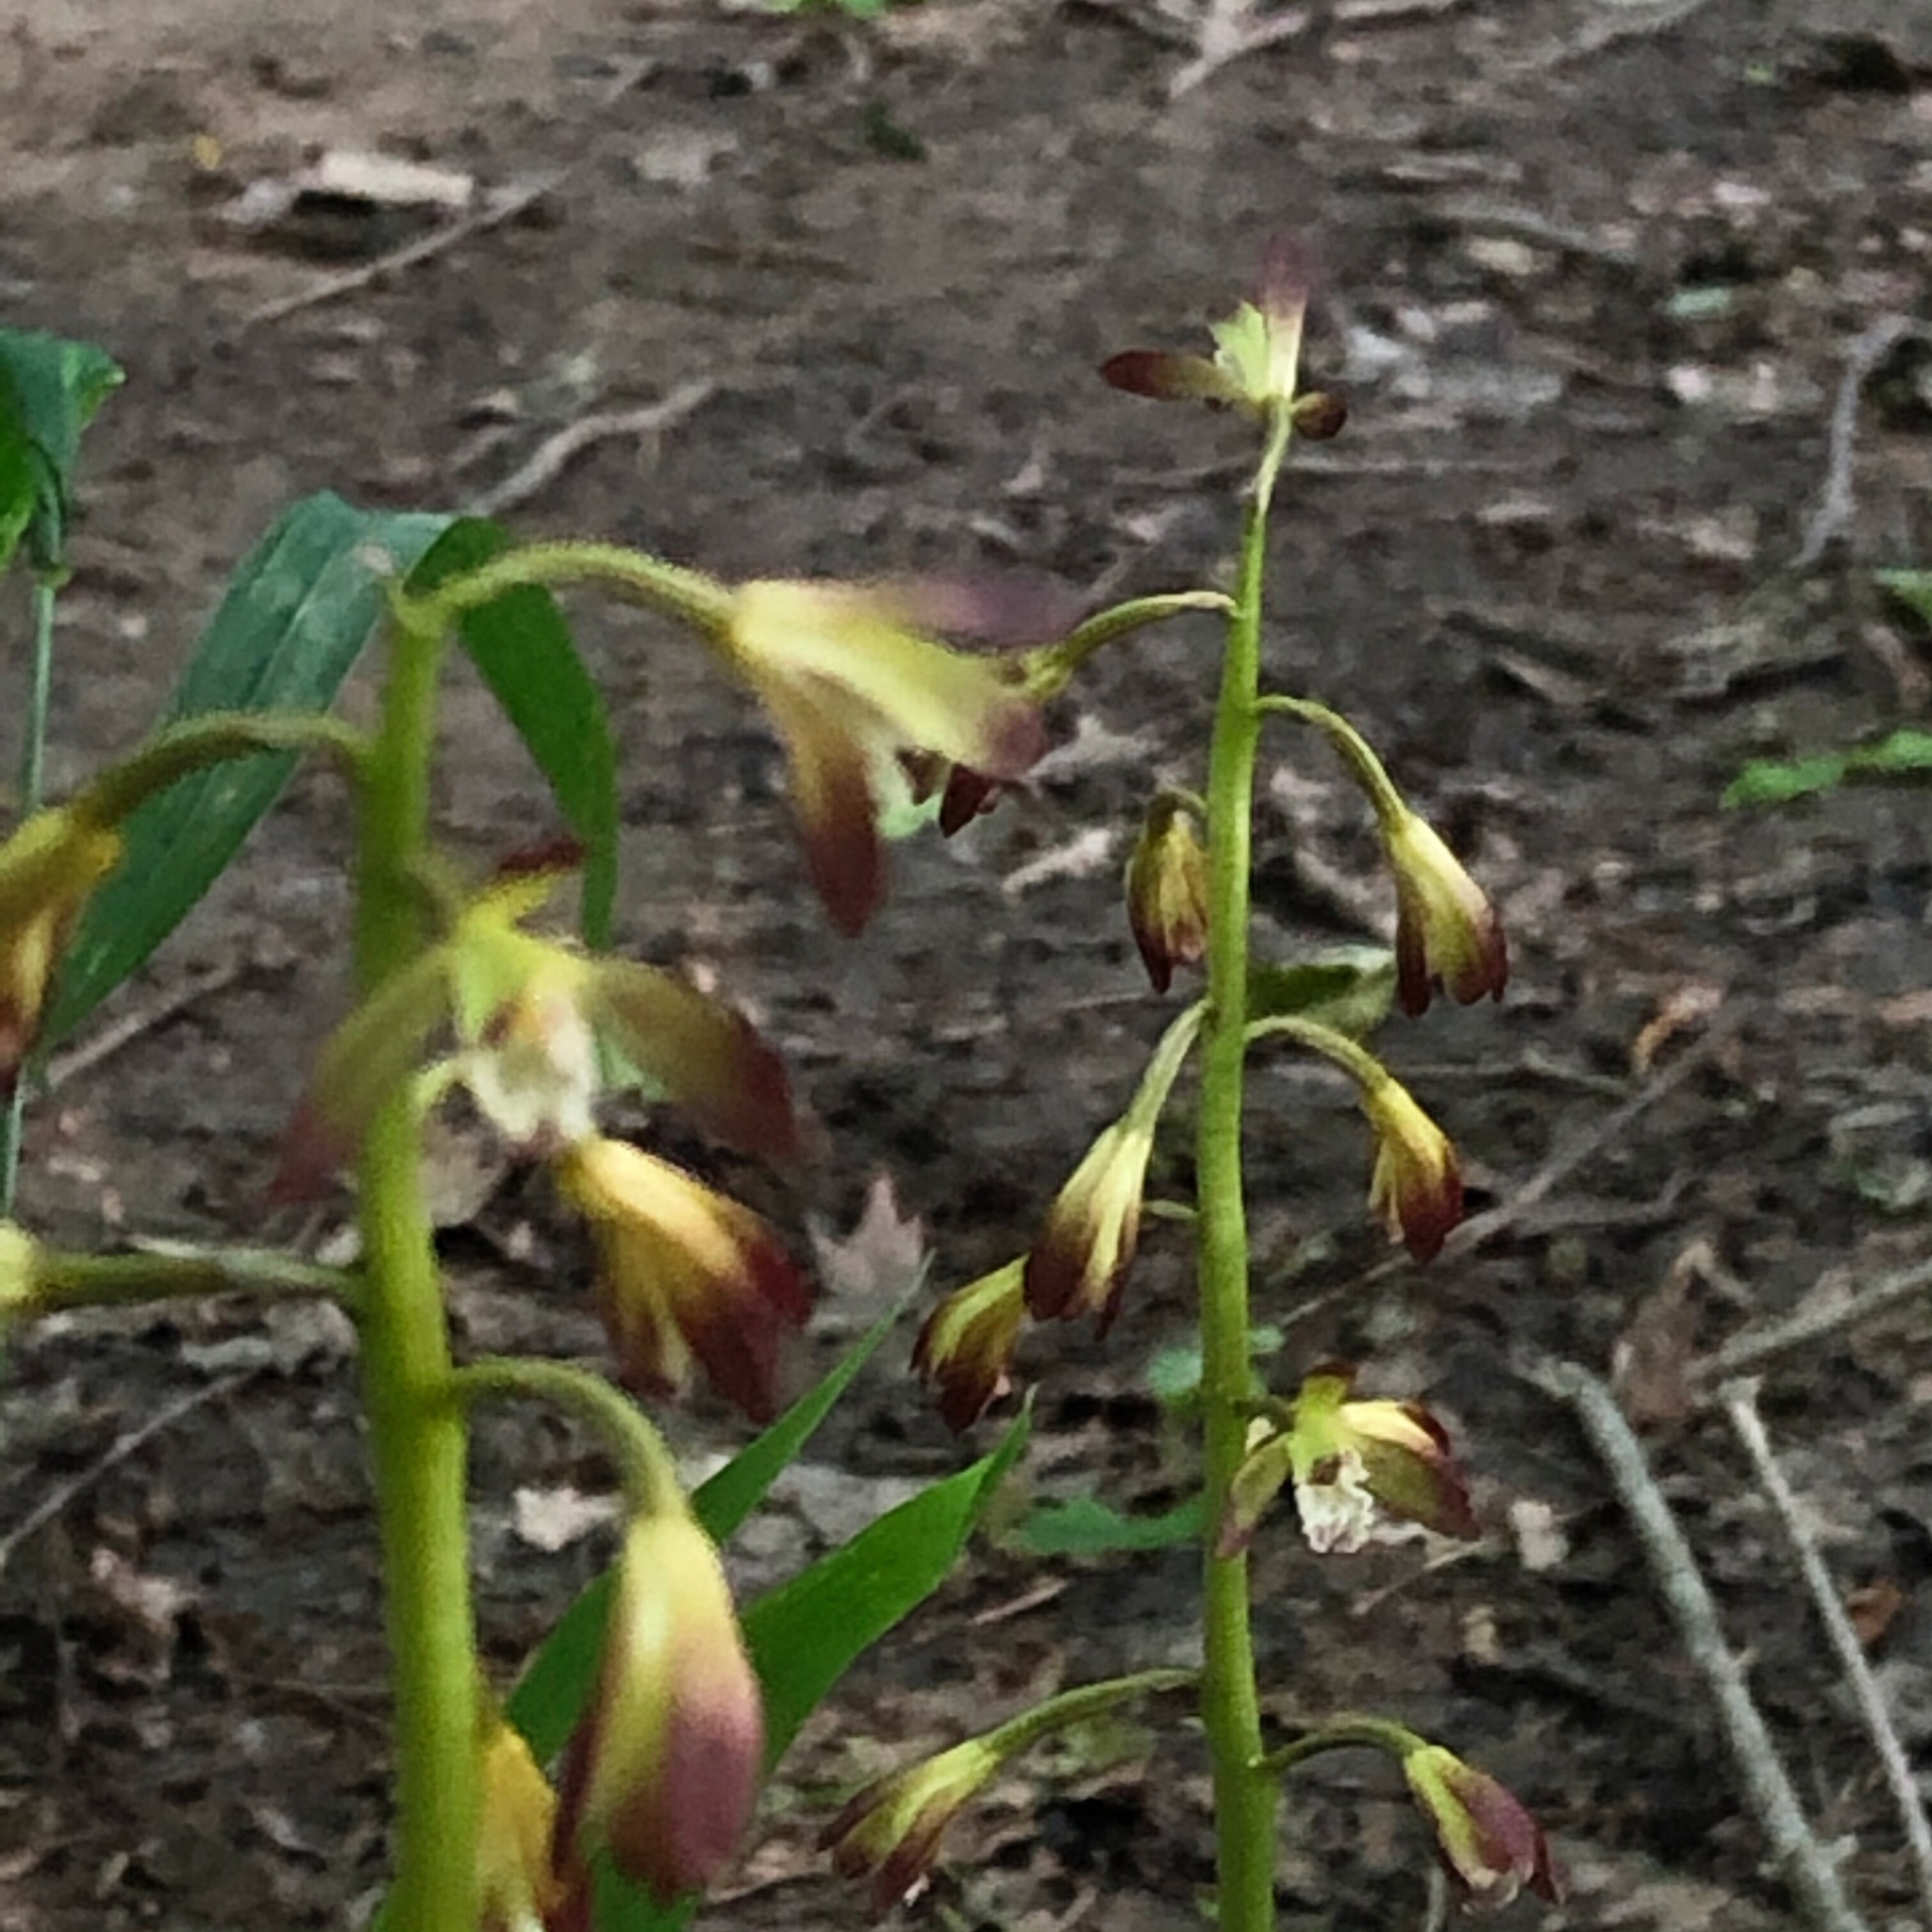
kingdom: Plantae
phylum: Tracheophyta
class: Liliopsida
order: Asparagales
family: Orchidaceae
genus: Aplectrum
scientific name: Aplectrum hyemale
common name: Adam-and-eve
